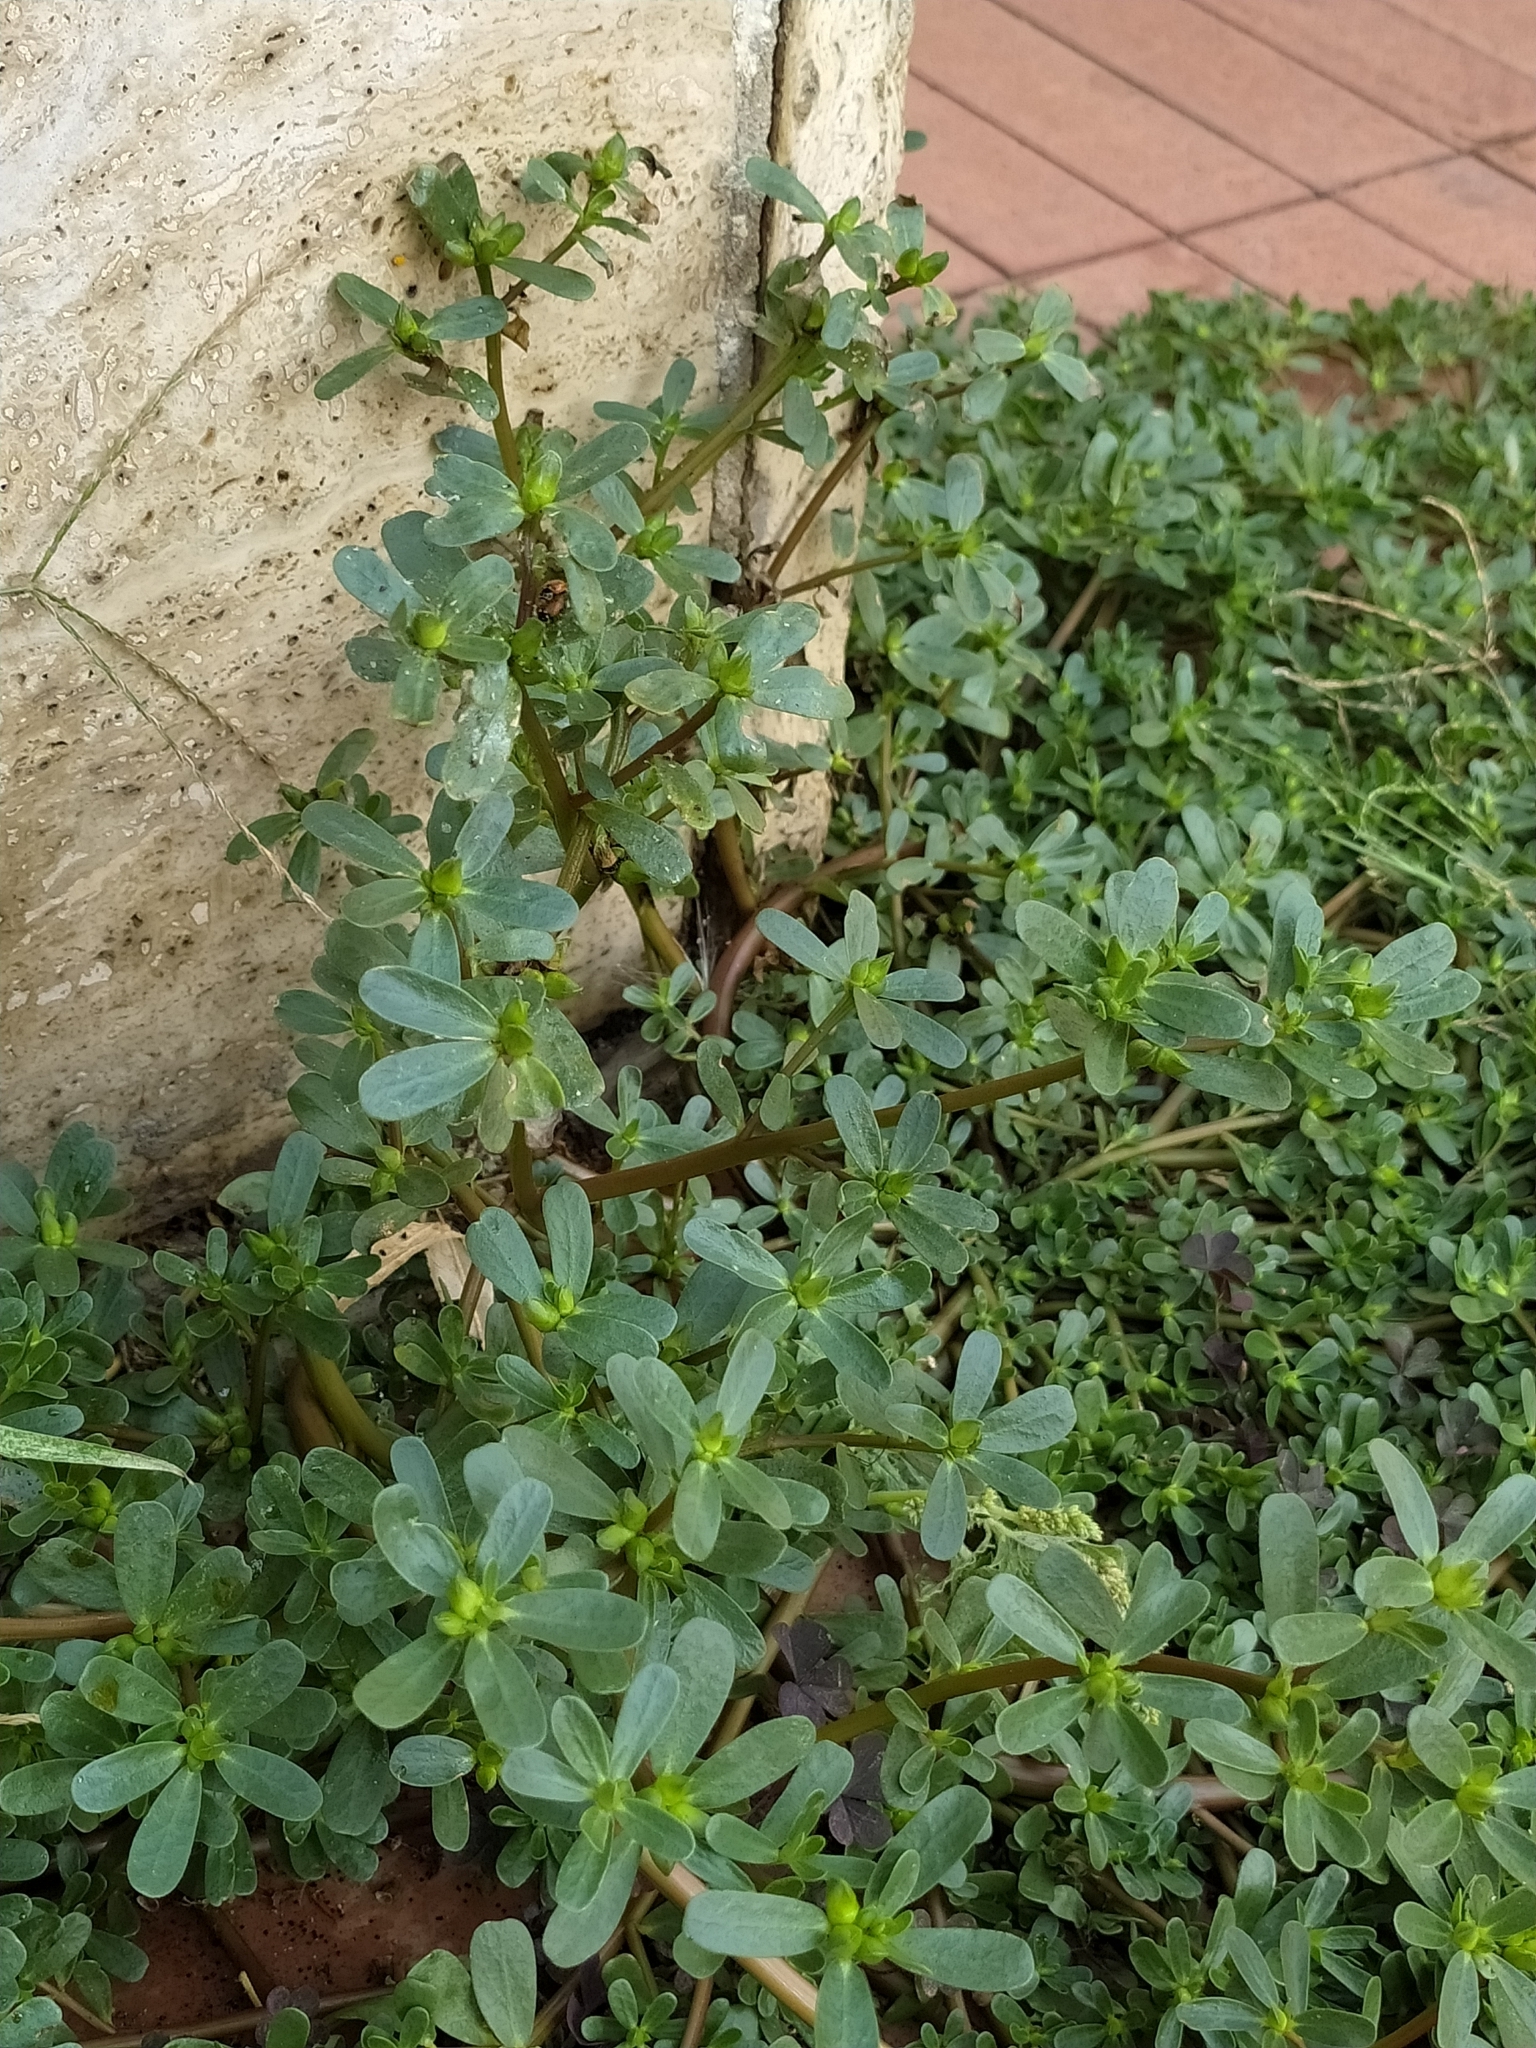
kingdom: Plantae
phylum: Tracheophyta
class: Magnoliopsida
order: Caryophyllales
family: Portulacaceae
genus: Portulaca
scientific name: Portulaca oleracea
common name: Common purslane
